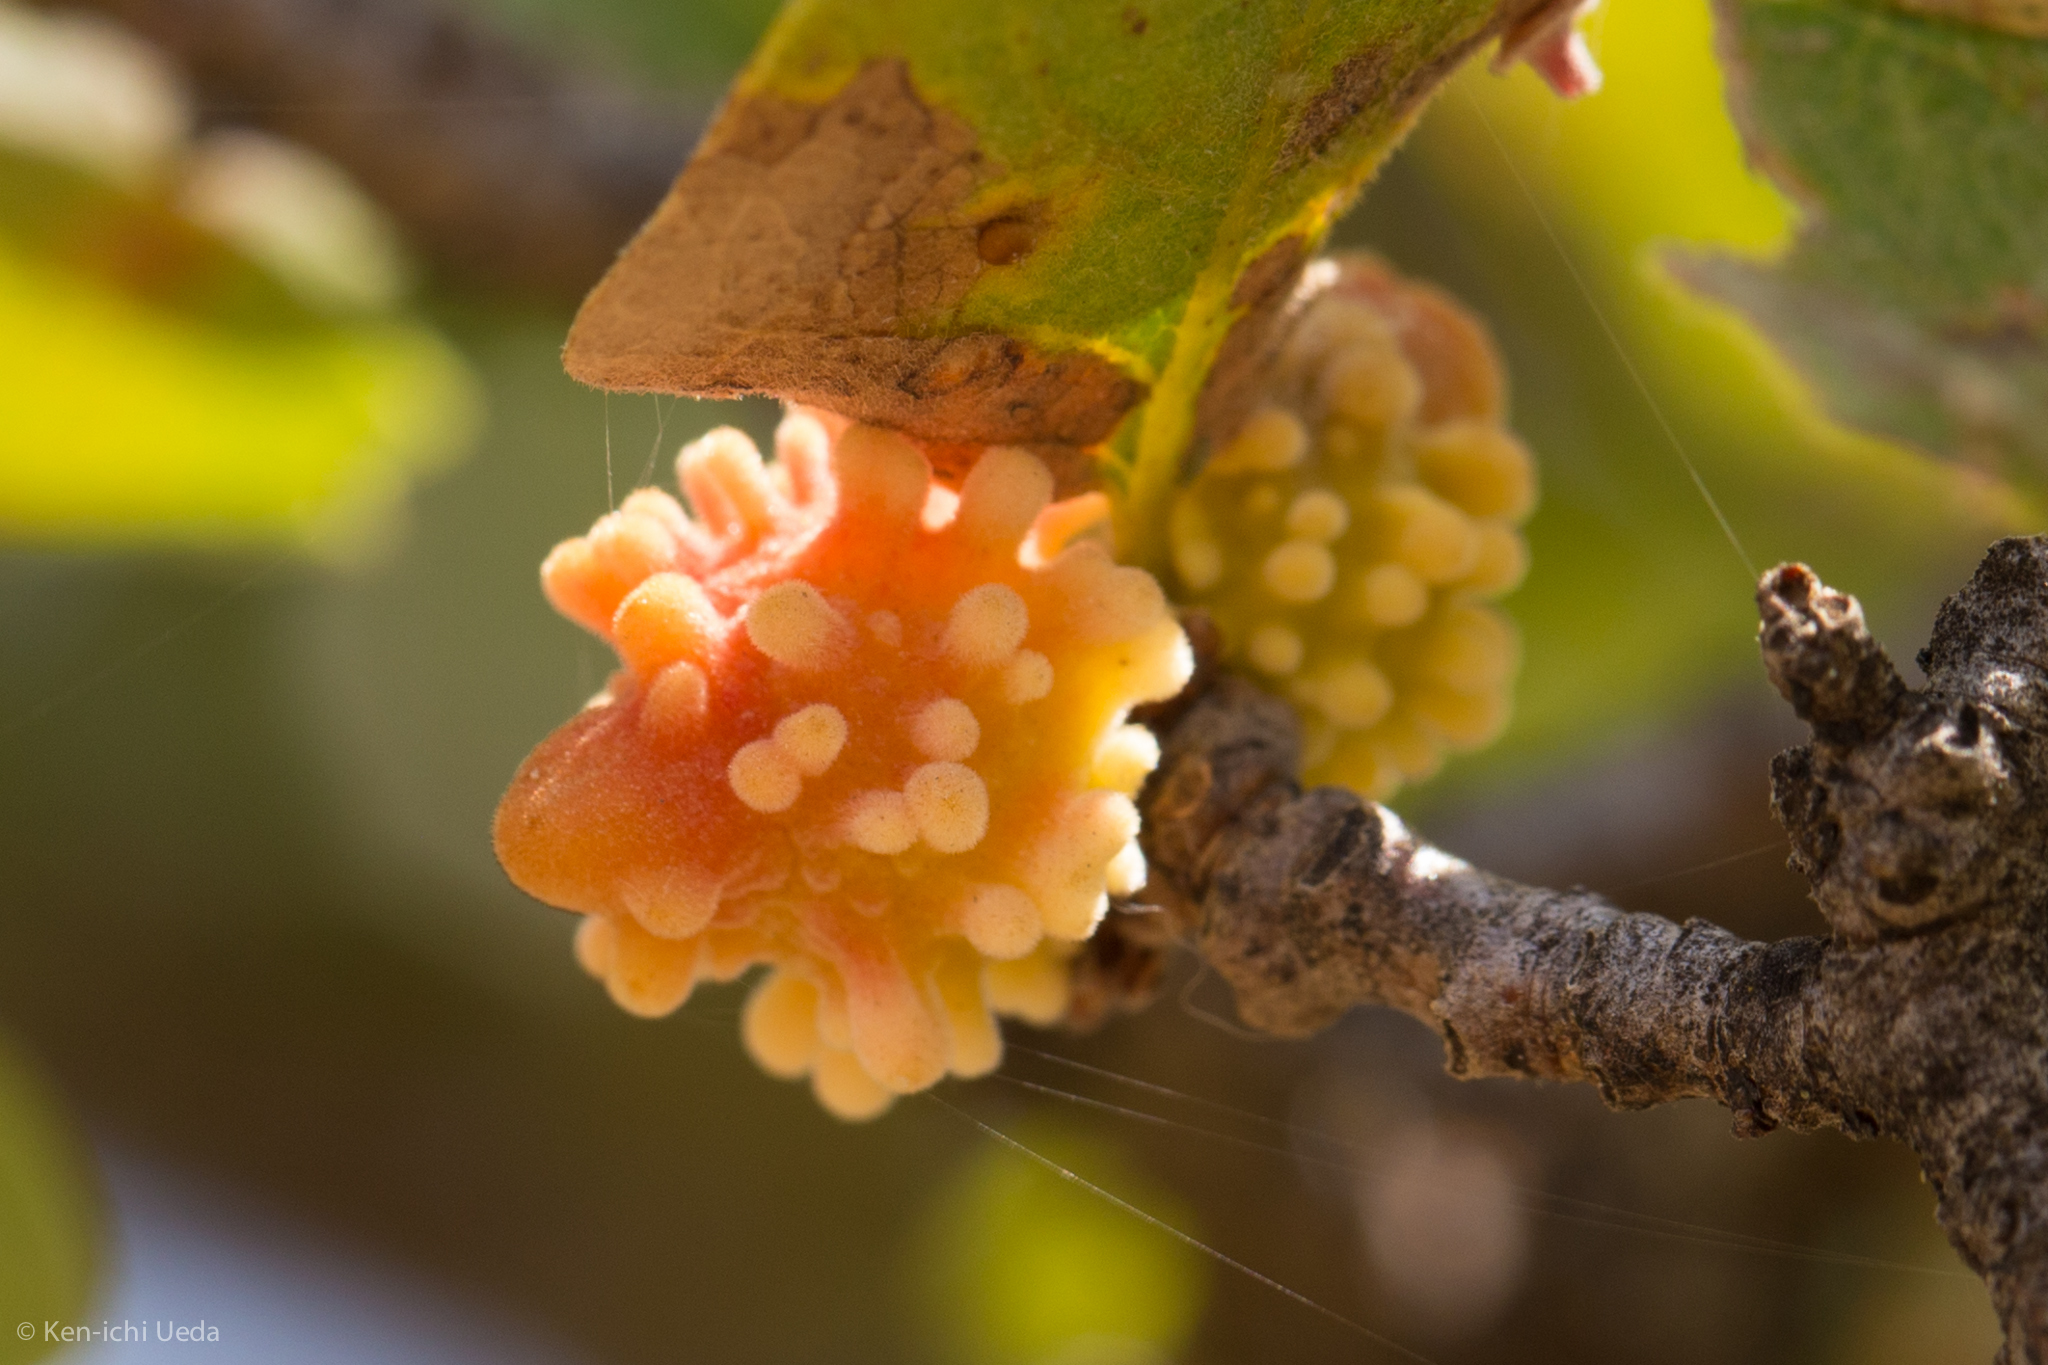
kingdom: Animalia
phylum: Arthropoda
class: Insecta
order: Hymenoptera
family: Cynipidae
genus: Burnettweldia
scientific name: Burnettweldia
